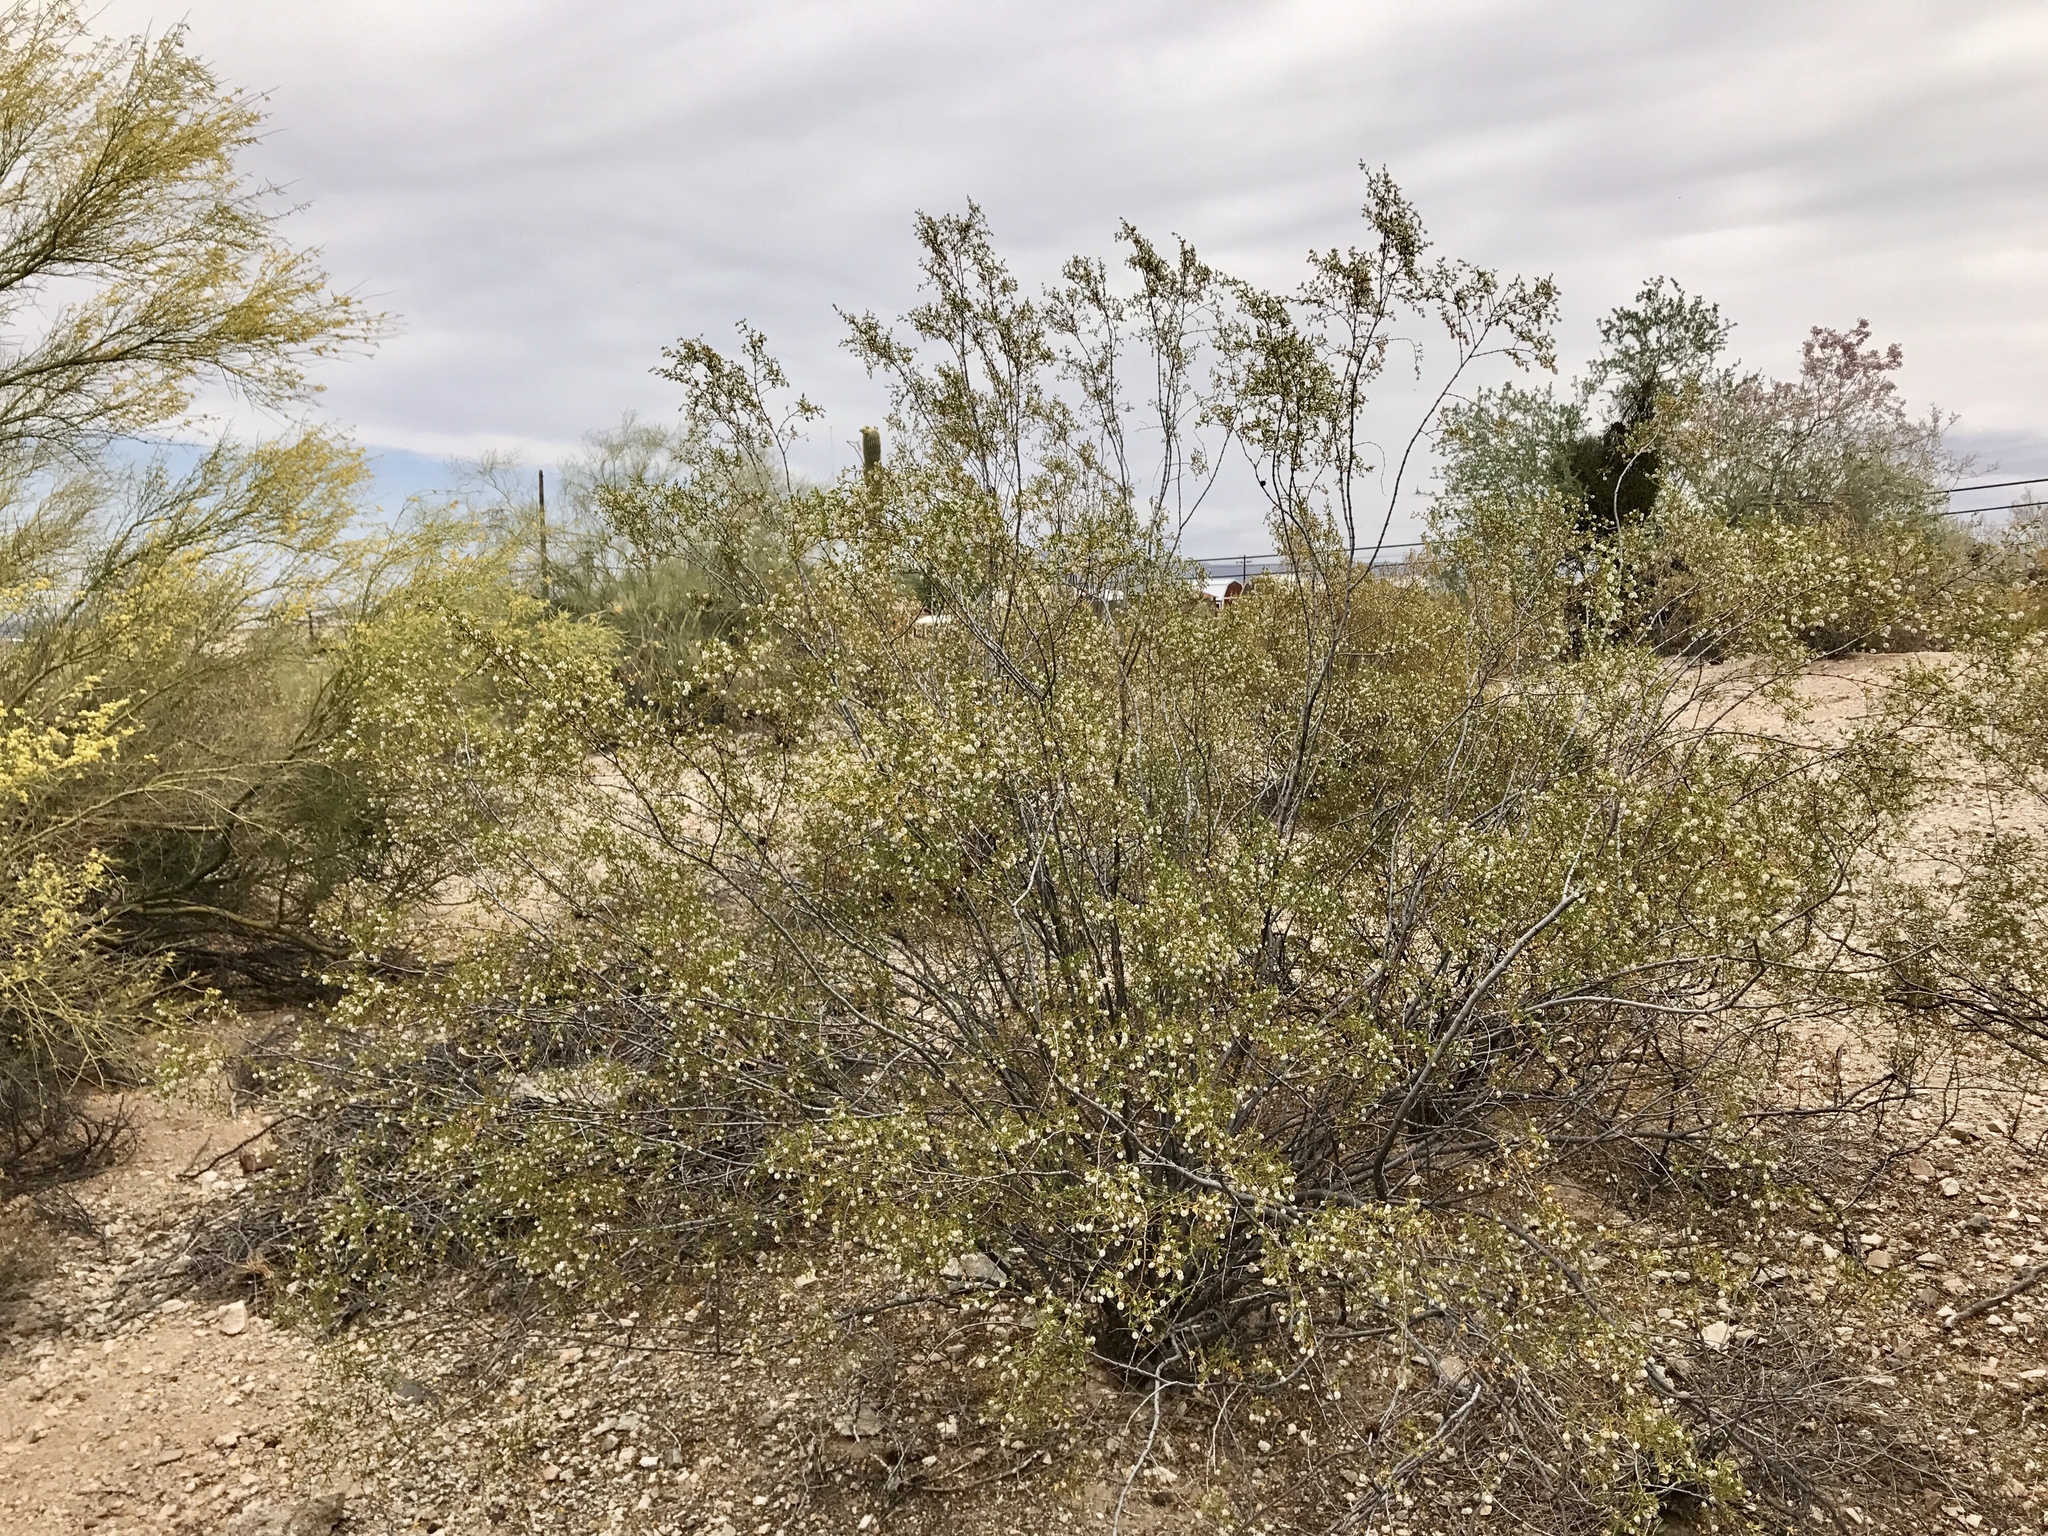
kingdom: Plantae
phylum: Tracheophyta
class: Magnoliopsida
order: Zygophyllales
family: Zygophyllaceae
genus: Larrea
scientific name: Larrea tridentata
